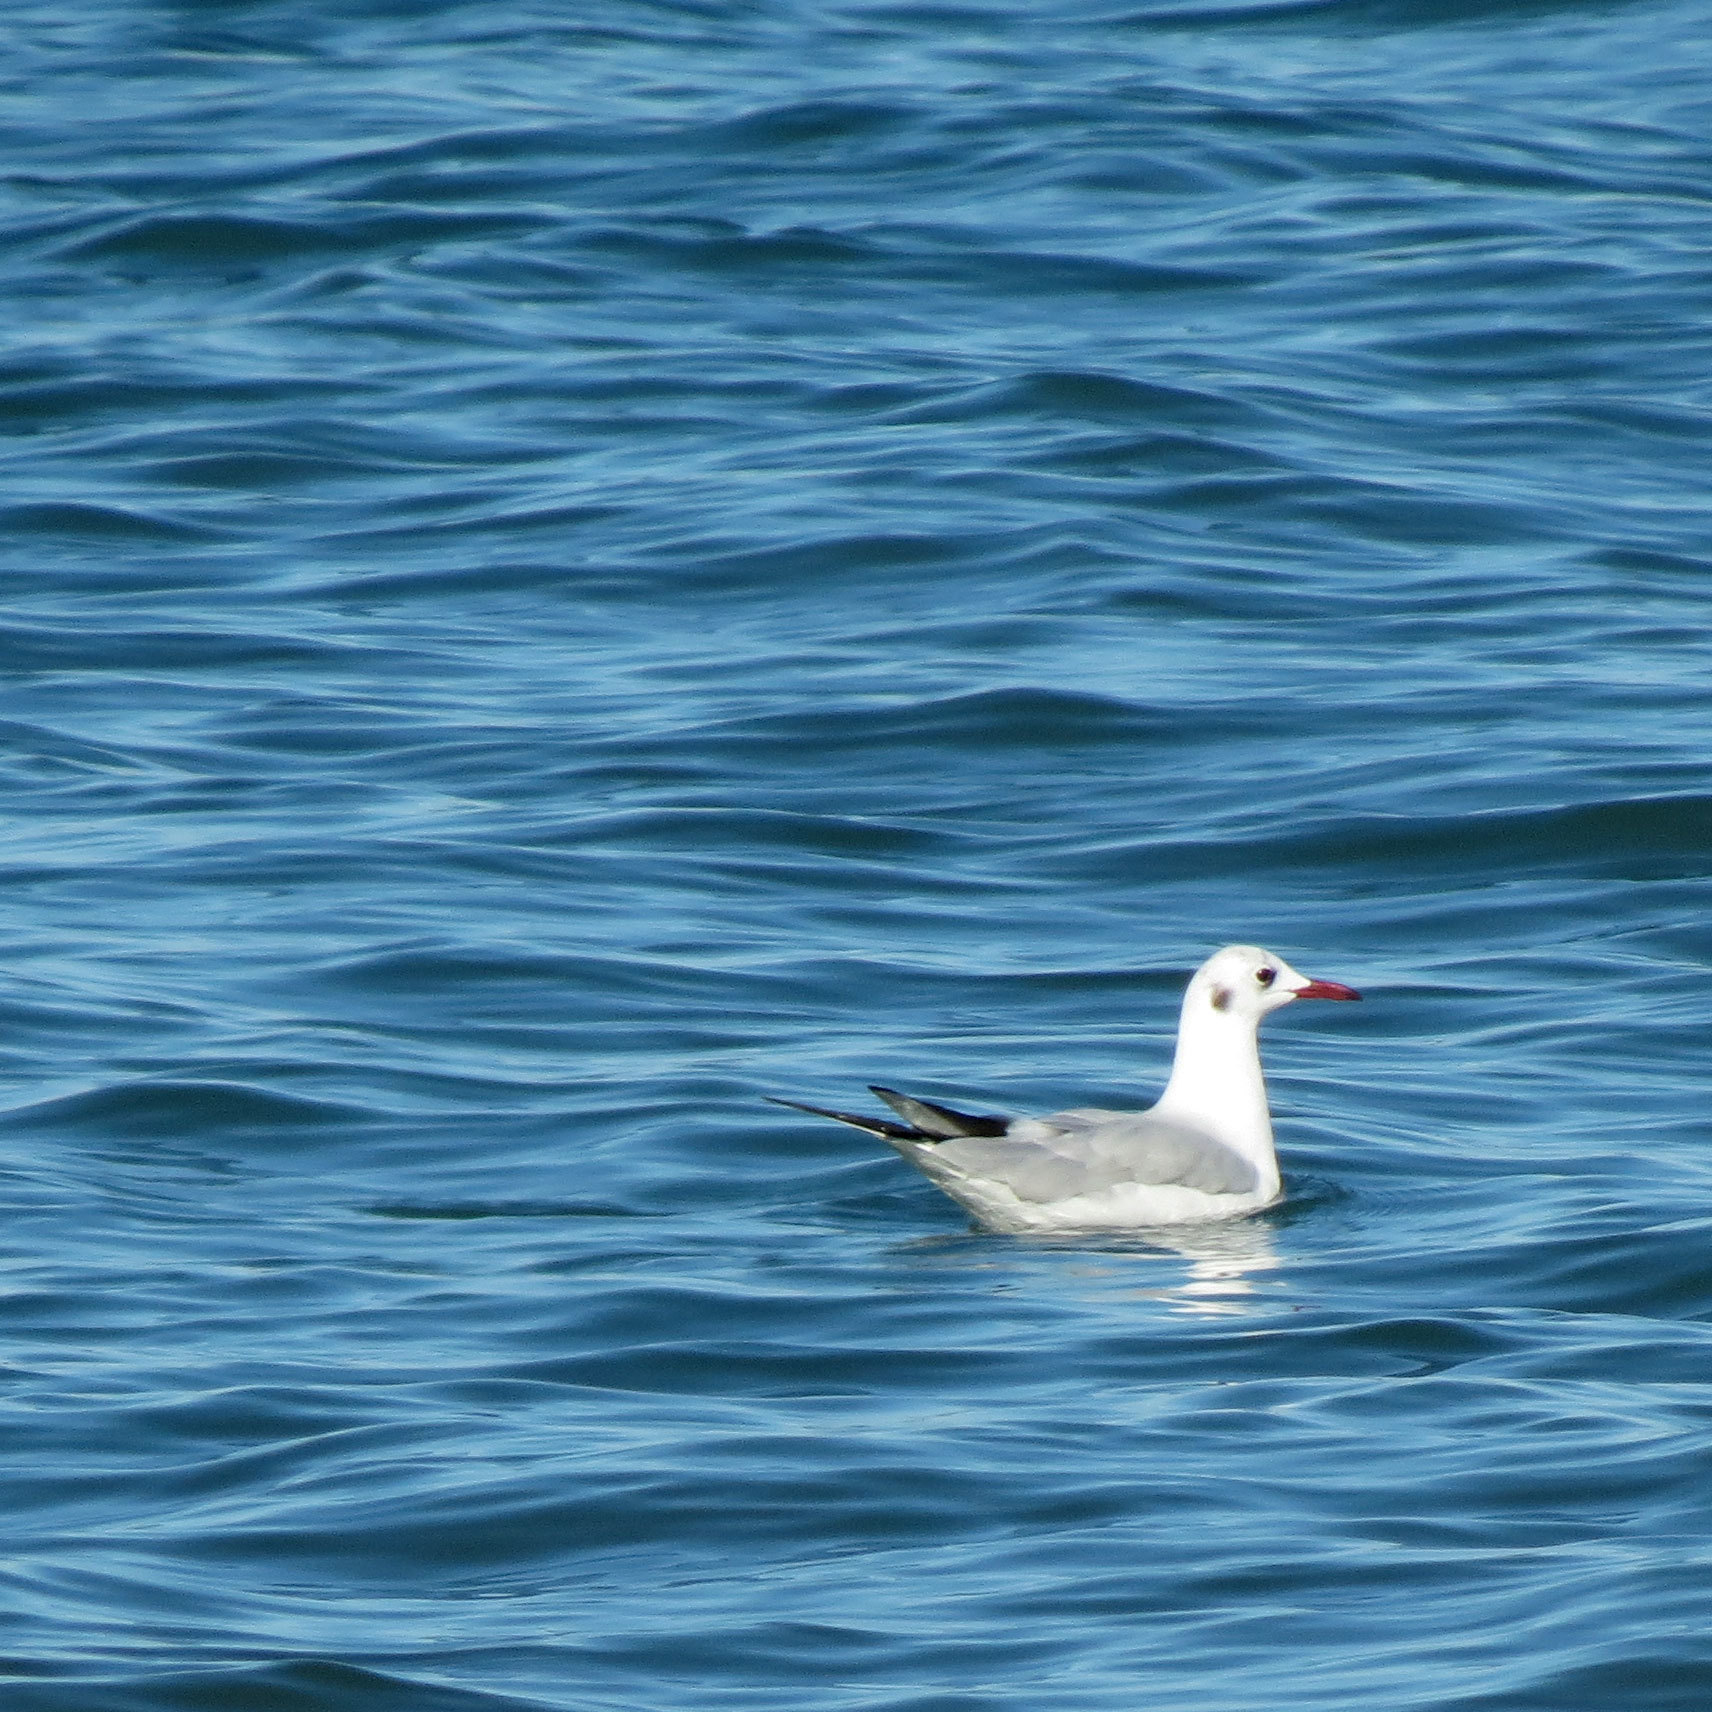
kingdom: Animalia
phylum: Chordata
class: Aves
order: Charadriiformes
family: Laridae
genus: Chroicocephalus
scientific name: Chroicocephalus ridibundus
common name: Black-headed gull
